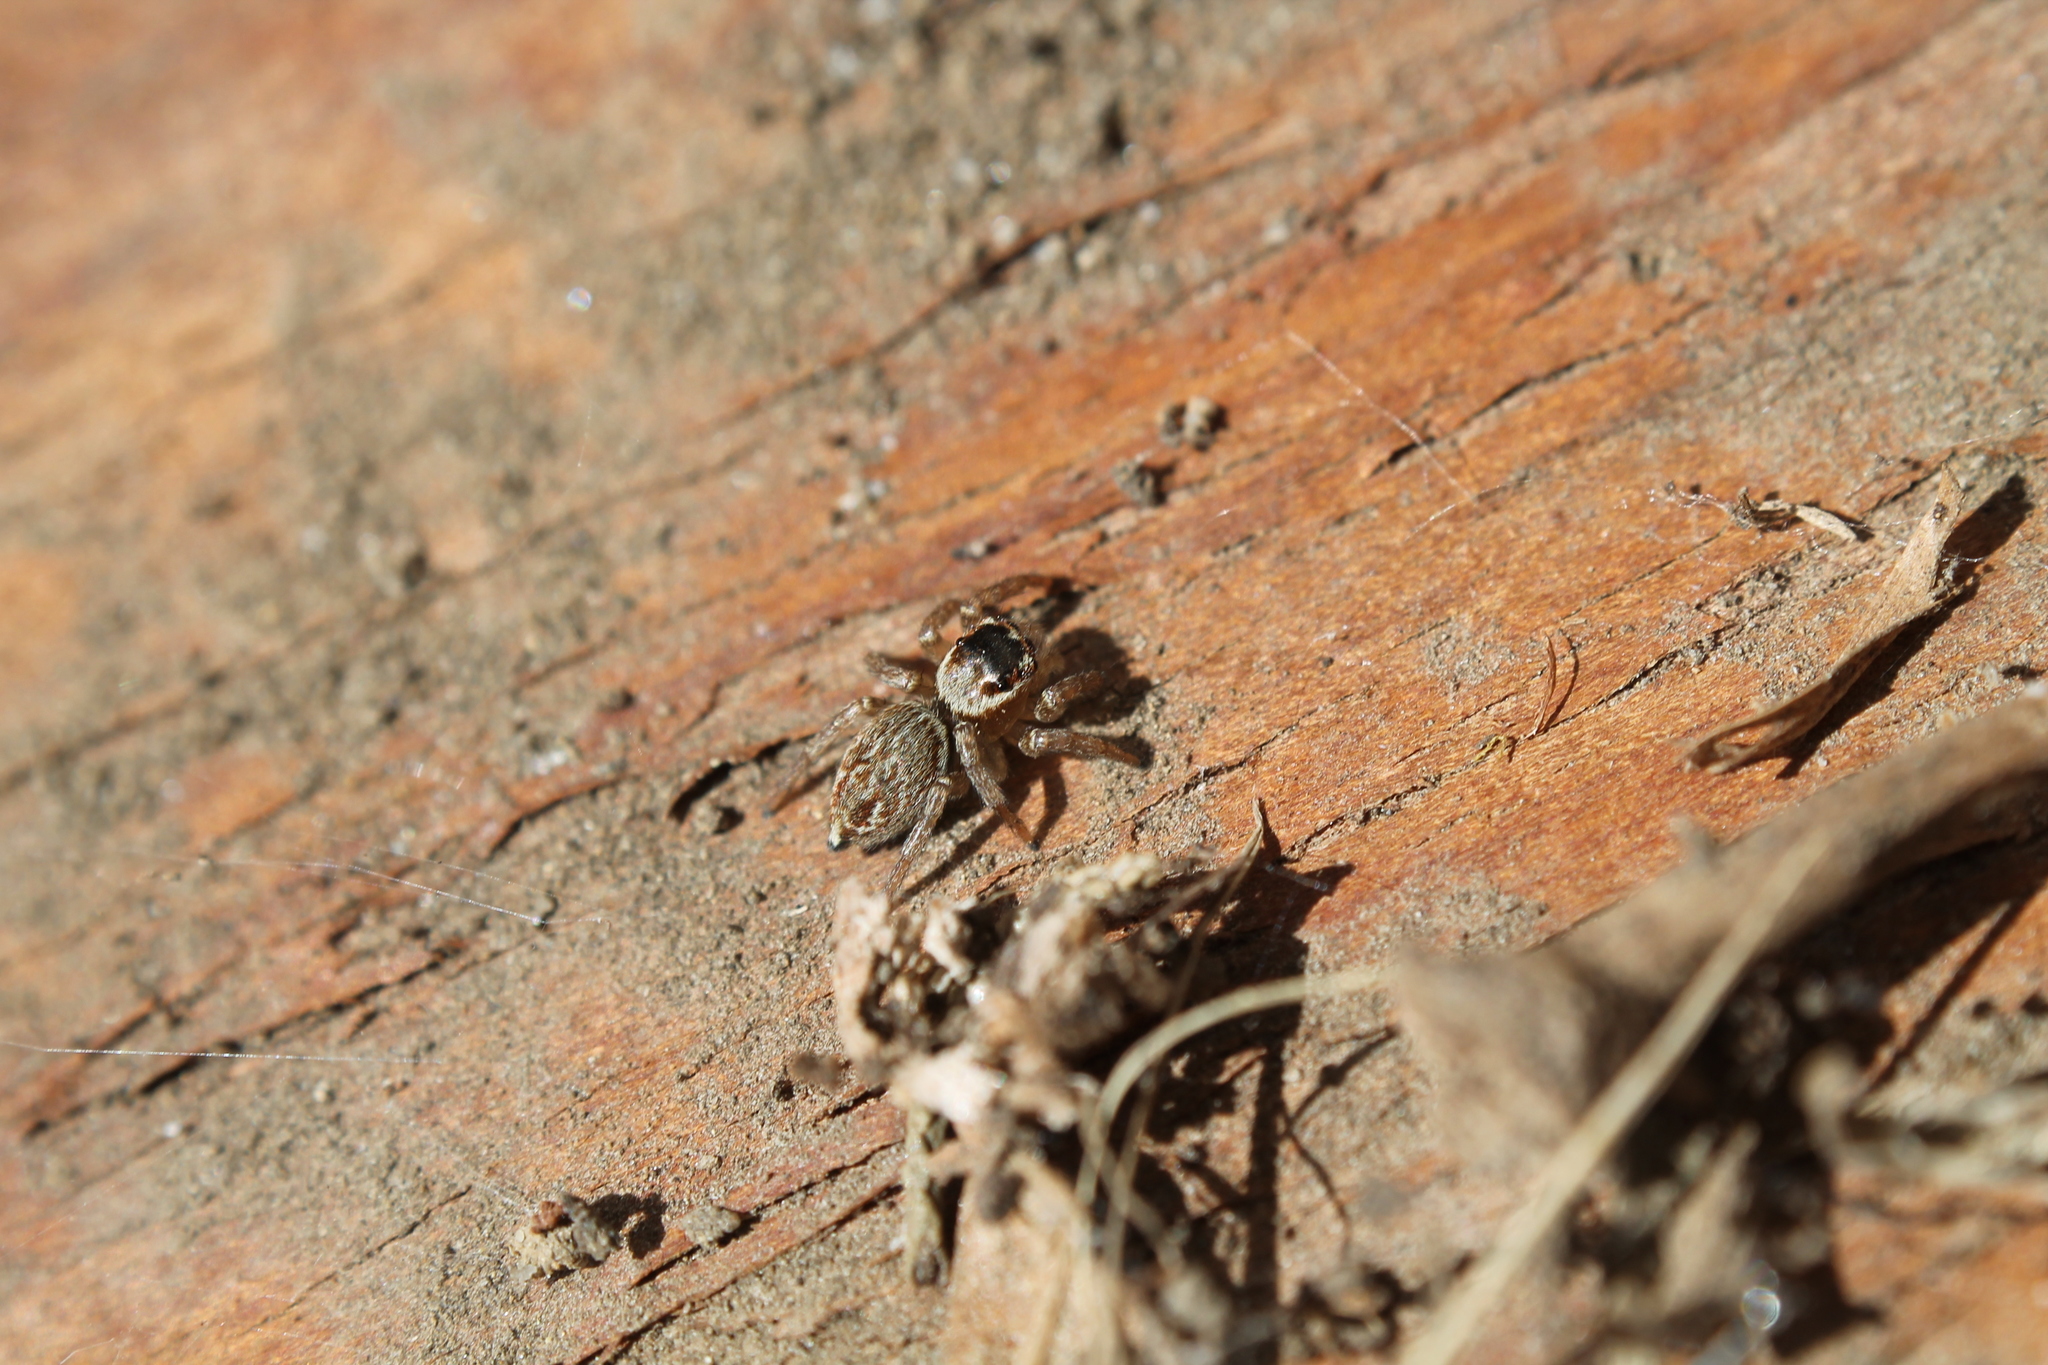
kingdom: Animalia
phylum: Arthropoda
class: Arachnida
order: Araneae
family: Salticidae
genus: Maratus
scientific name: Maratus griseus
